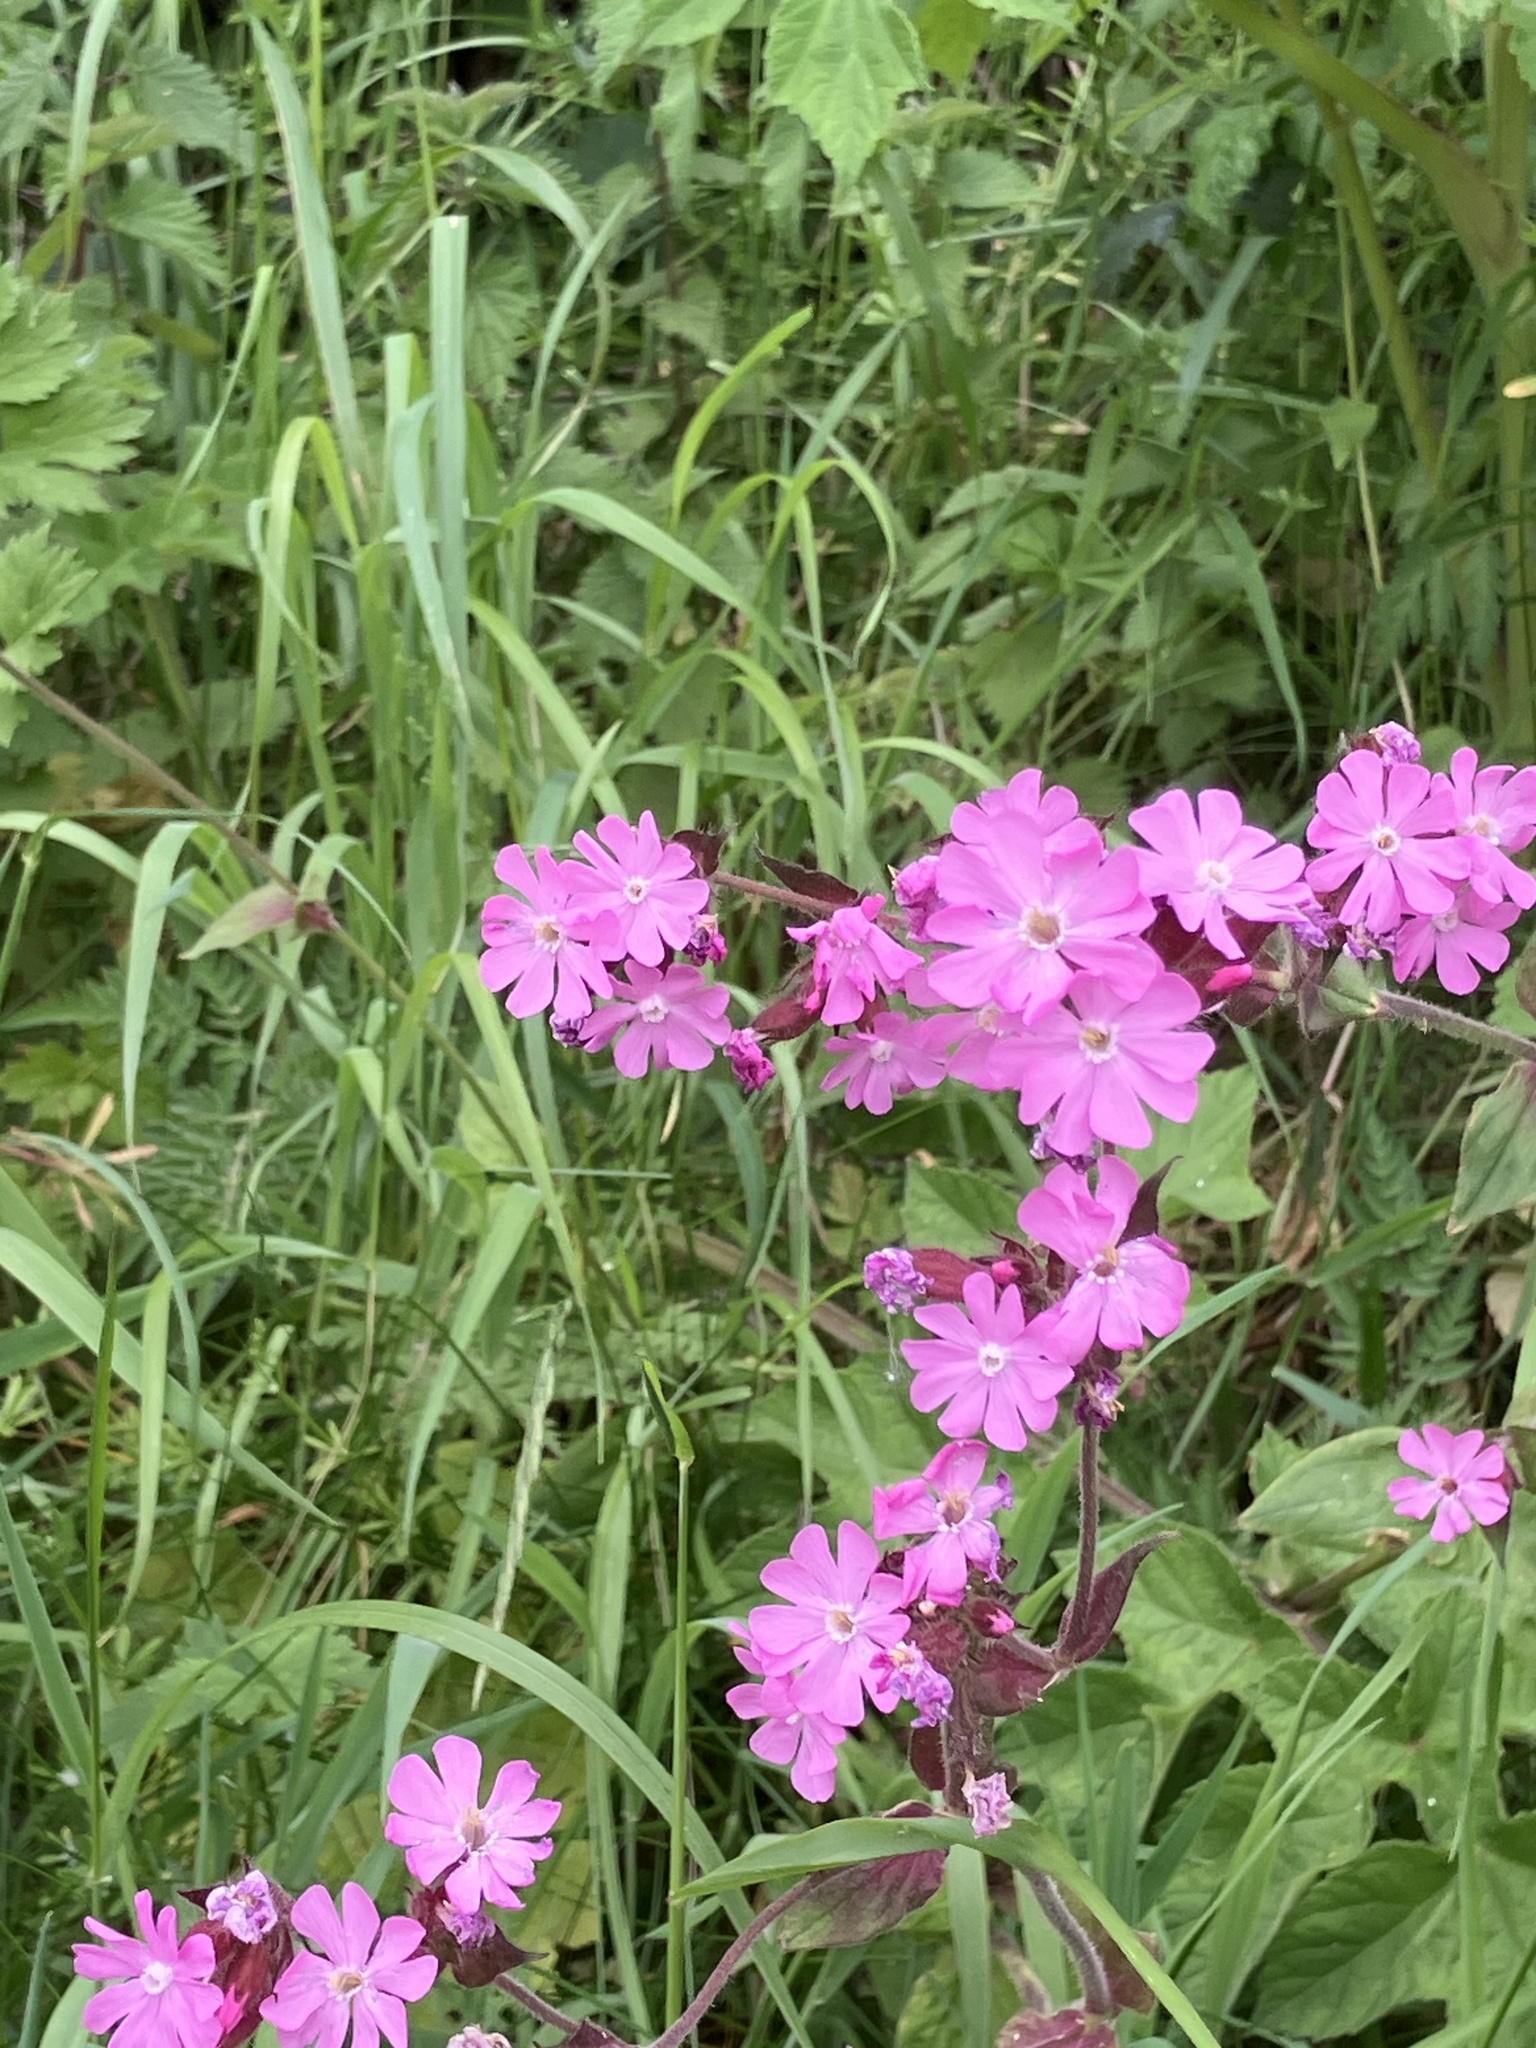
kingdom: Plantae
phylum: Tracheophyta
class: Magnoliopsida
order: Caryophyllales
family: Caryophyllaceae
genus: Silene
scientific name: Silene dioica
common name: Red campion
